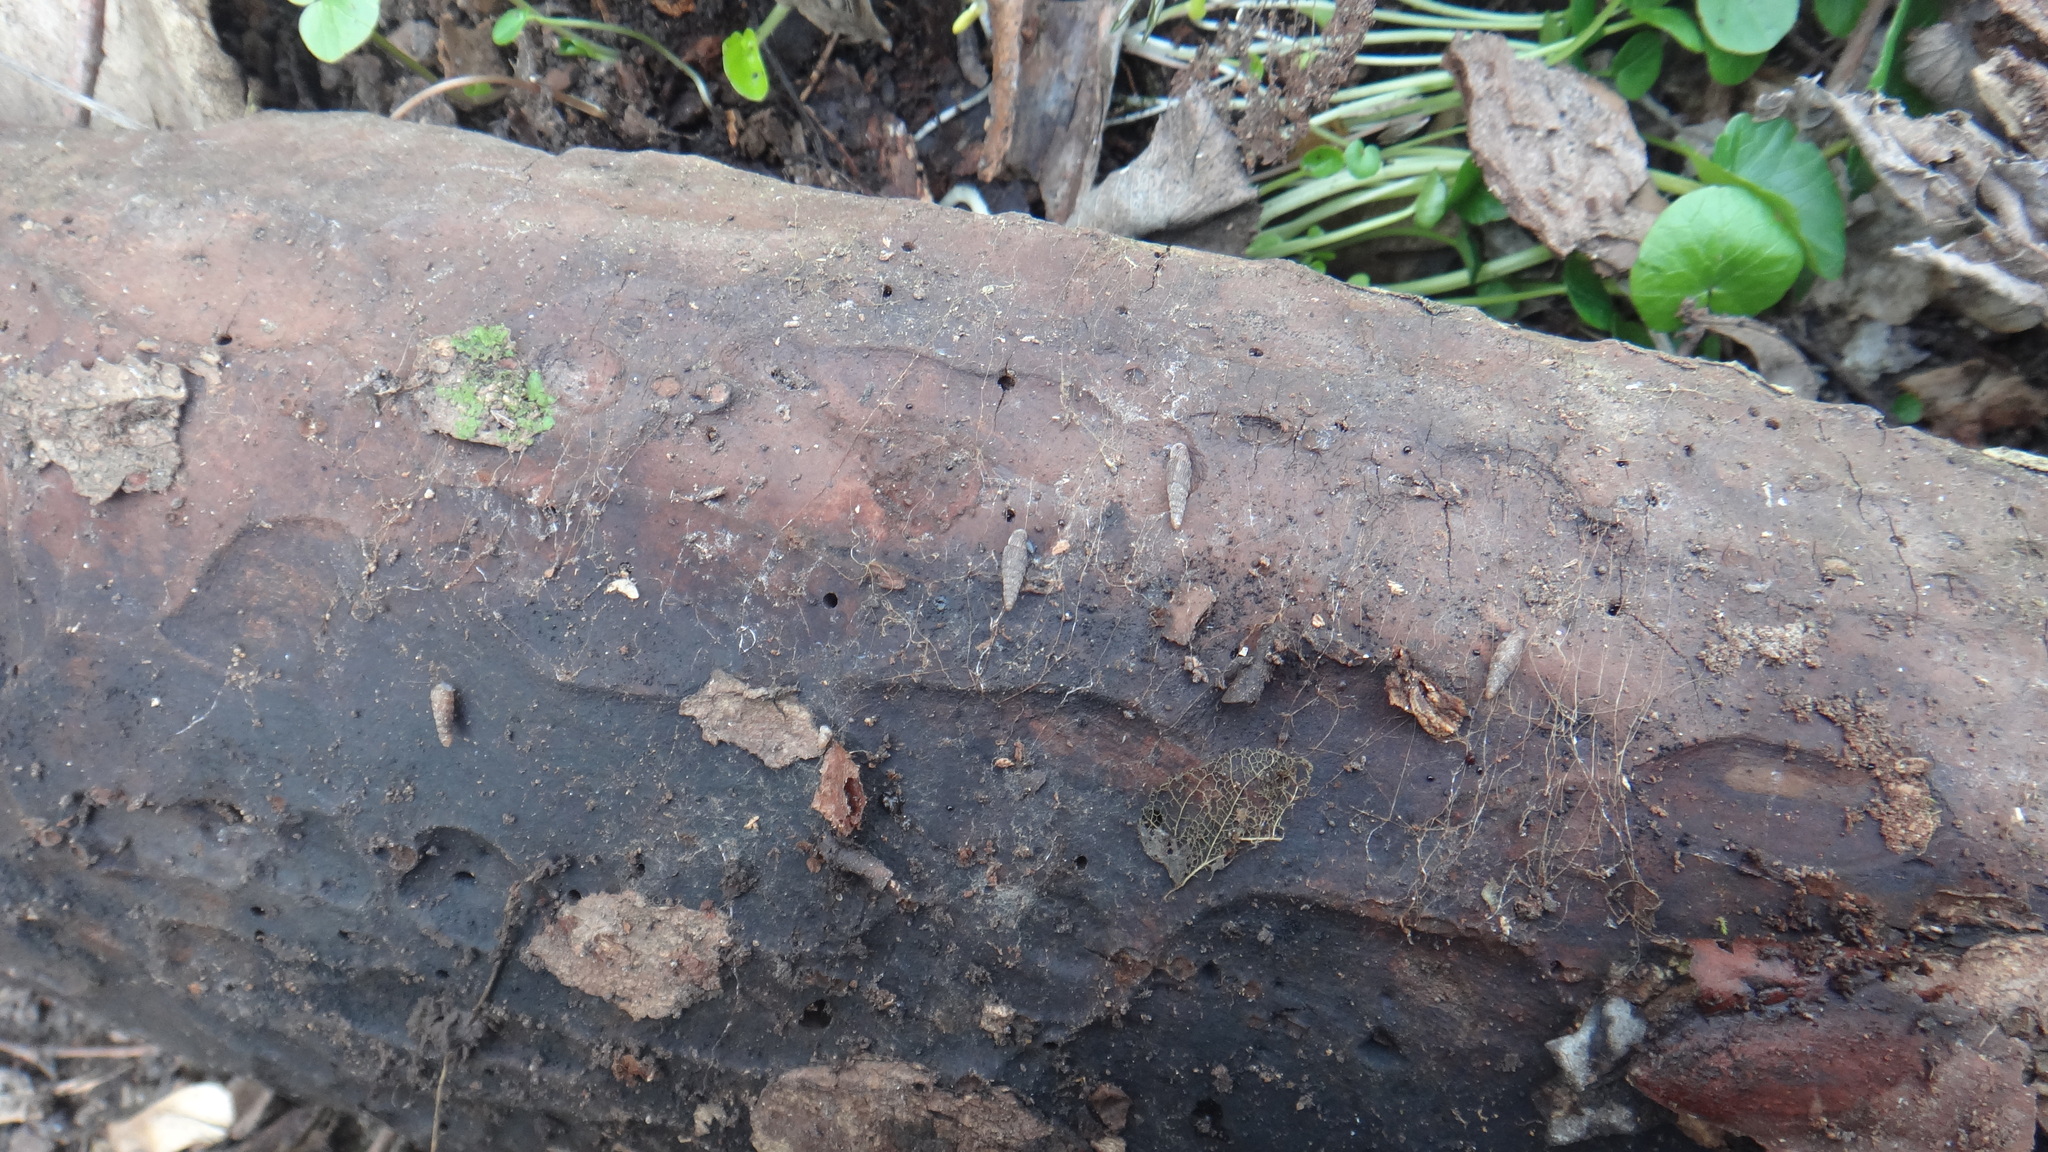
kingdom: Animalia
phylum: Mollusca
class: Gastropoda
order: Stylommatophora
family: Clausiliidae
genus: Ruthenica
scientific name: Ruthenica filograna
